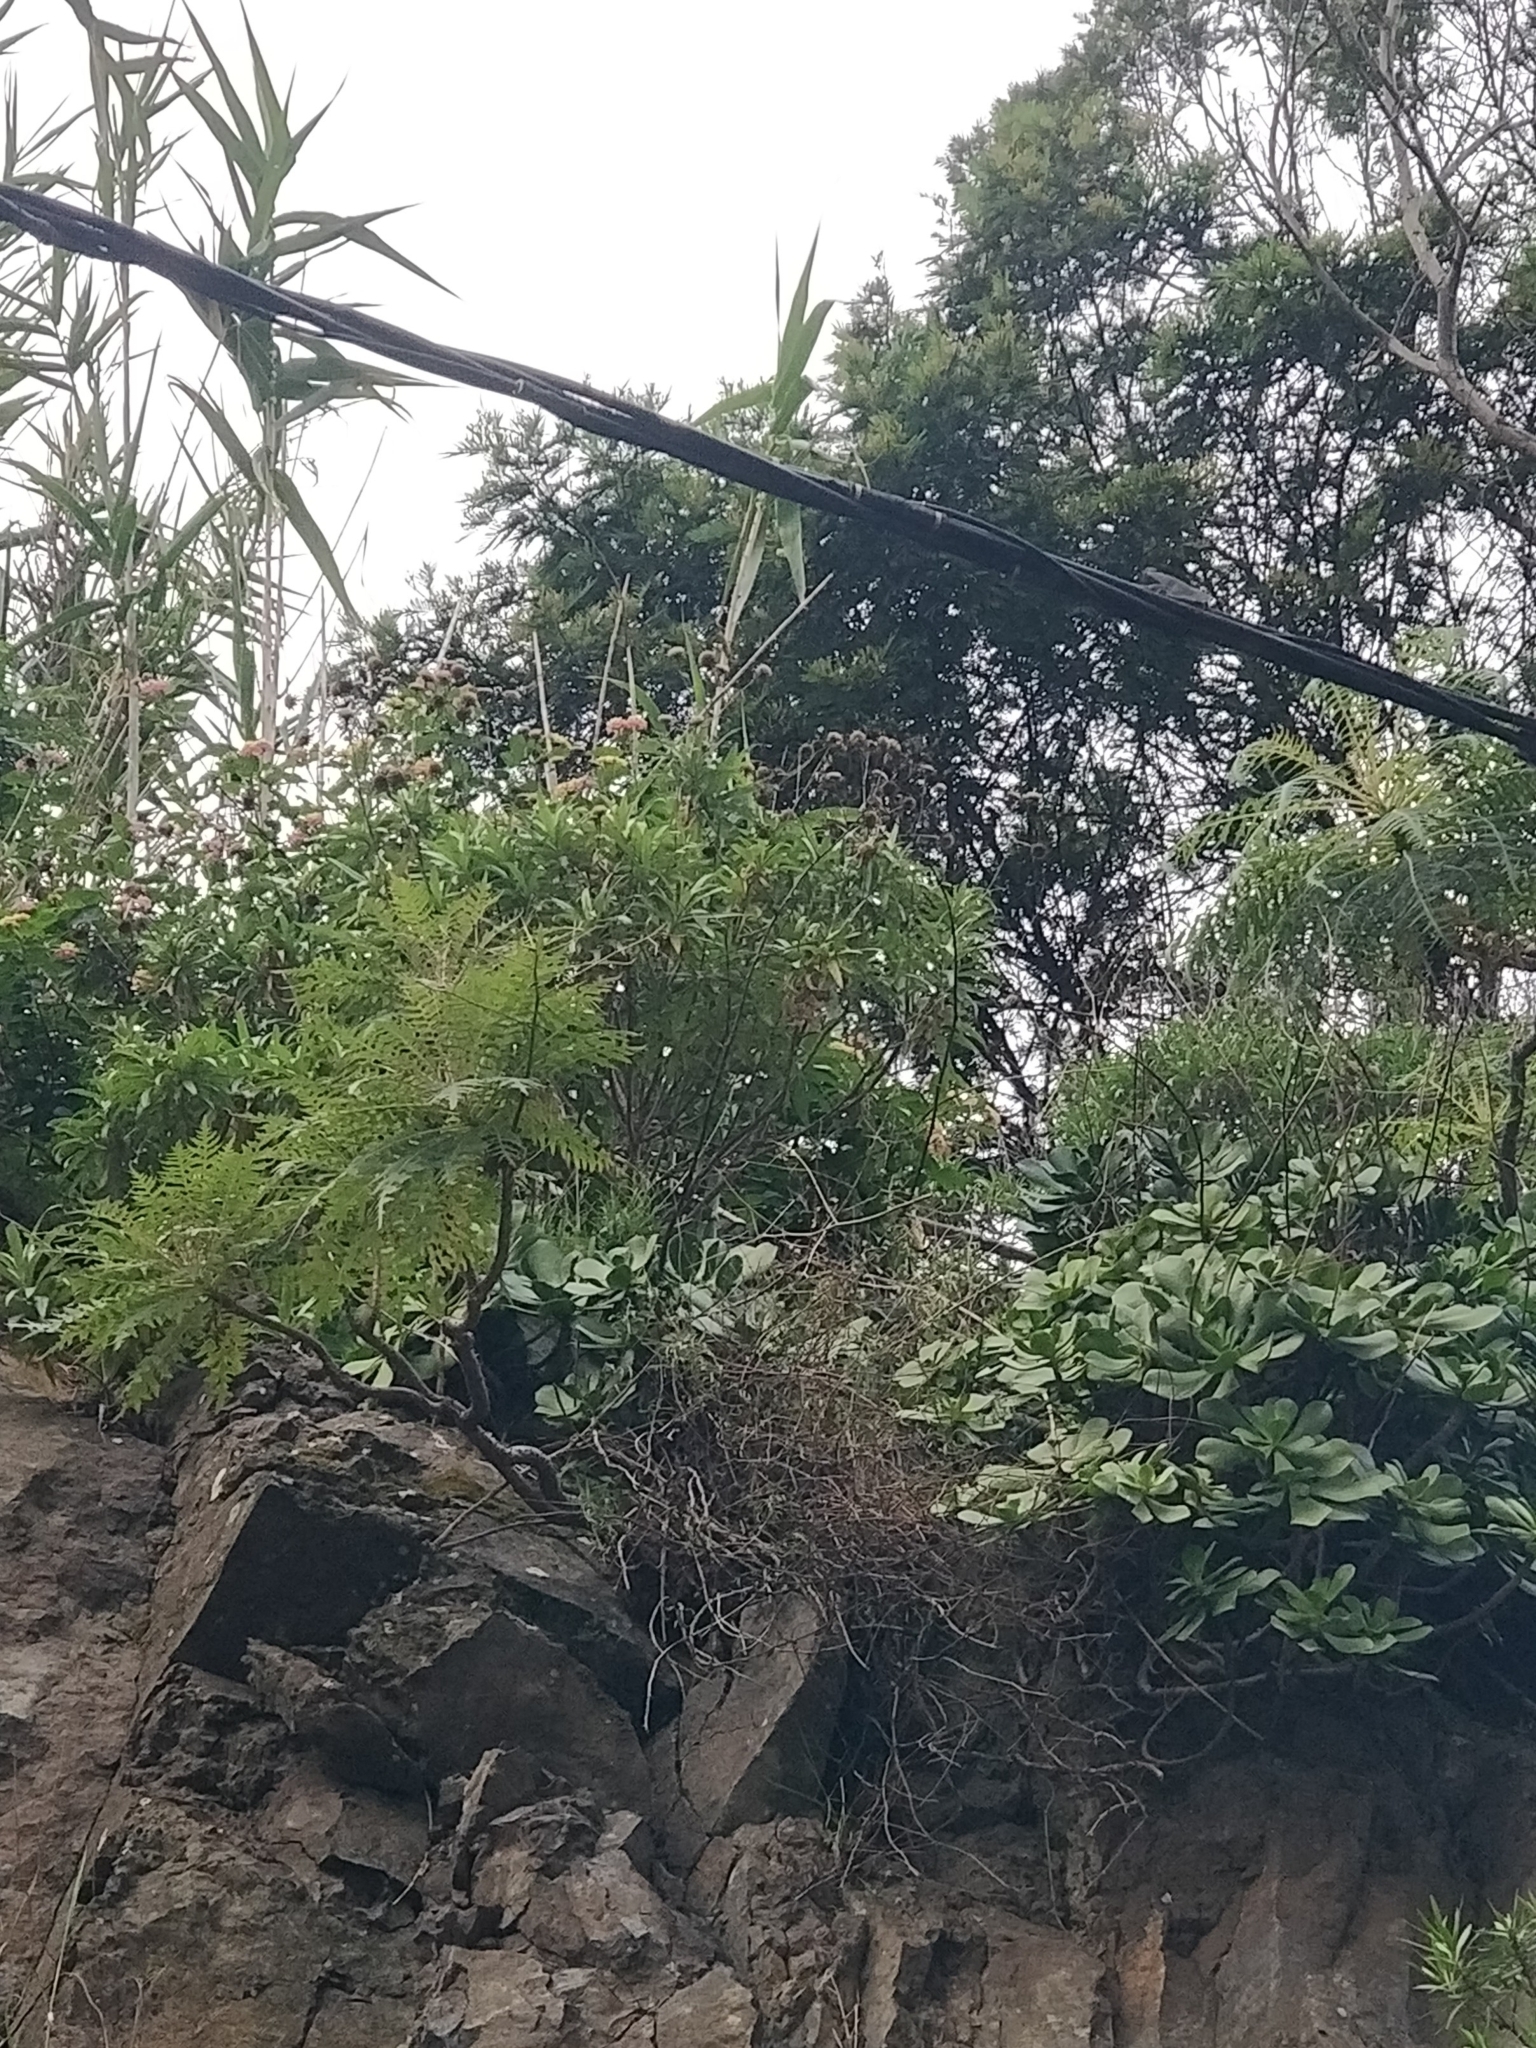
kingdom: Plantae
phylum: Tracheophyta
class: Magnoliopsida
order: Asterales
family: Asteraceae
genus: Sonchus
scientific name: Sonchus pinnatus
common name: Wing-leaved sow-thistle
